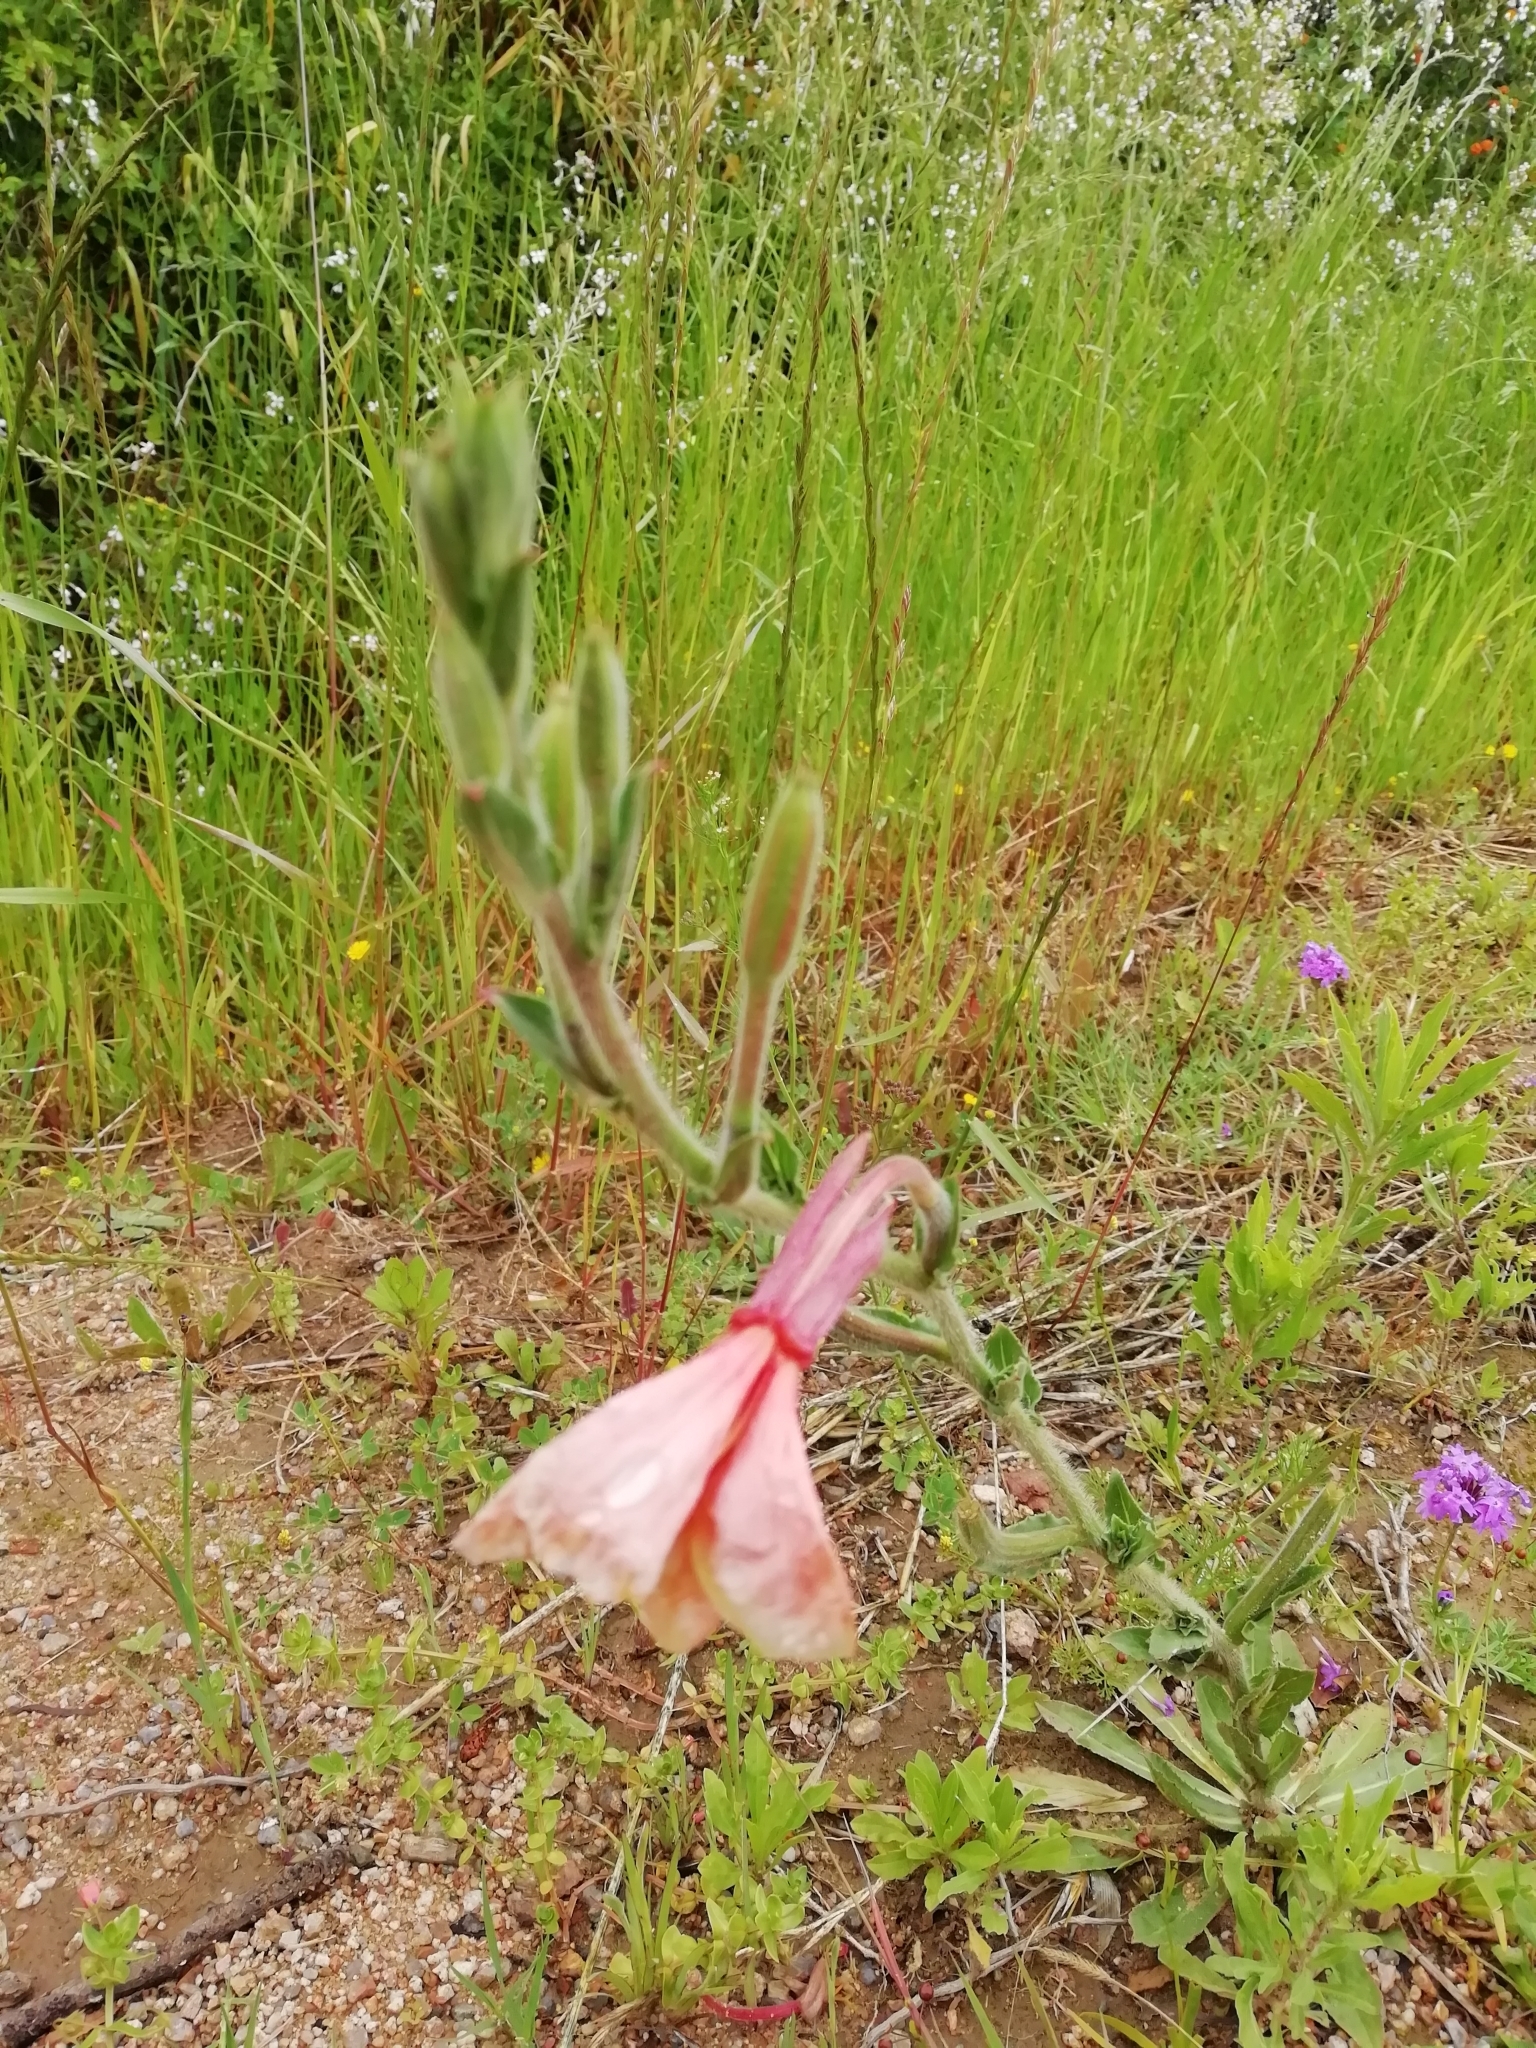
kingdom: Plantae
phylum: Tracheophyta
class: Magnoliopsida
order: Myrtales
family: Onagraceae
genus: Oenothera
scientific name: Oenothera parodiana
